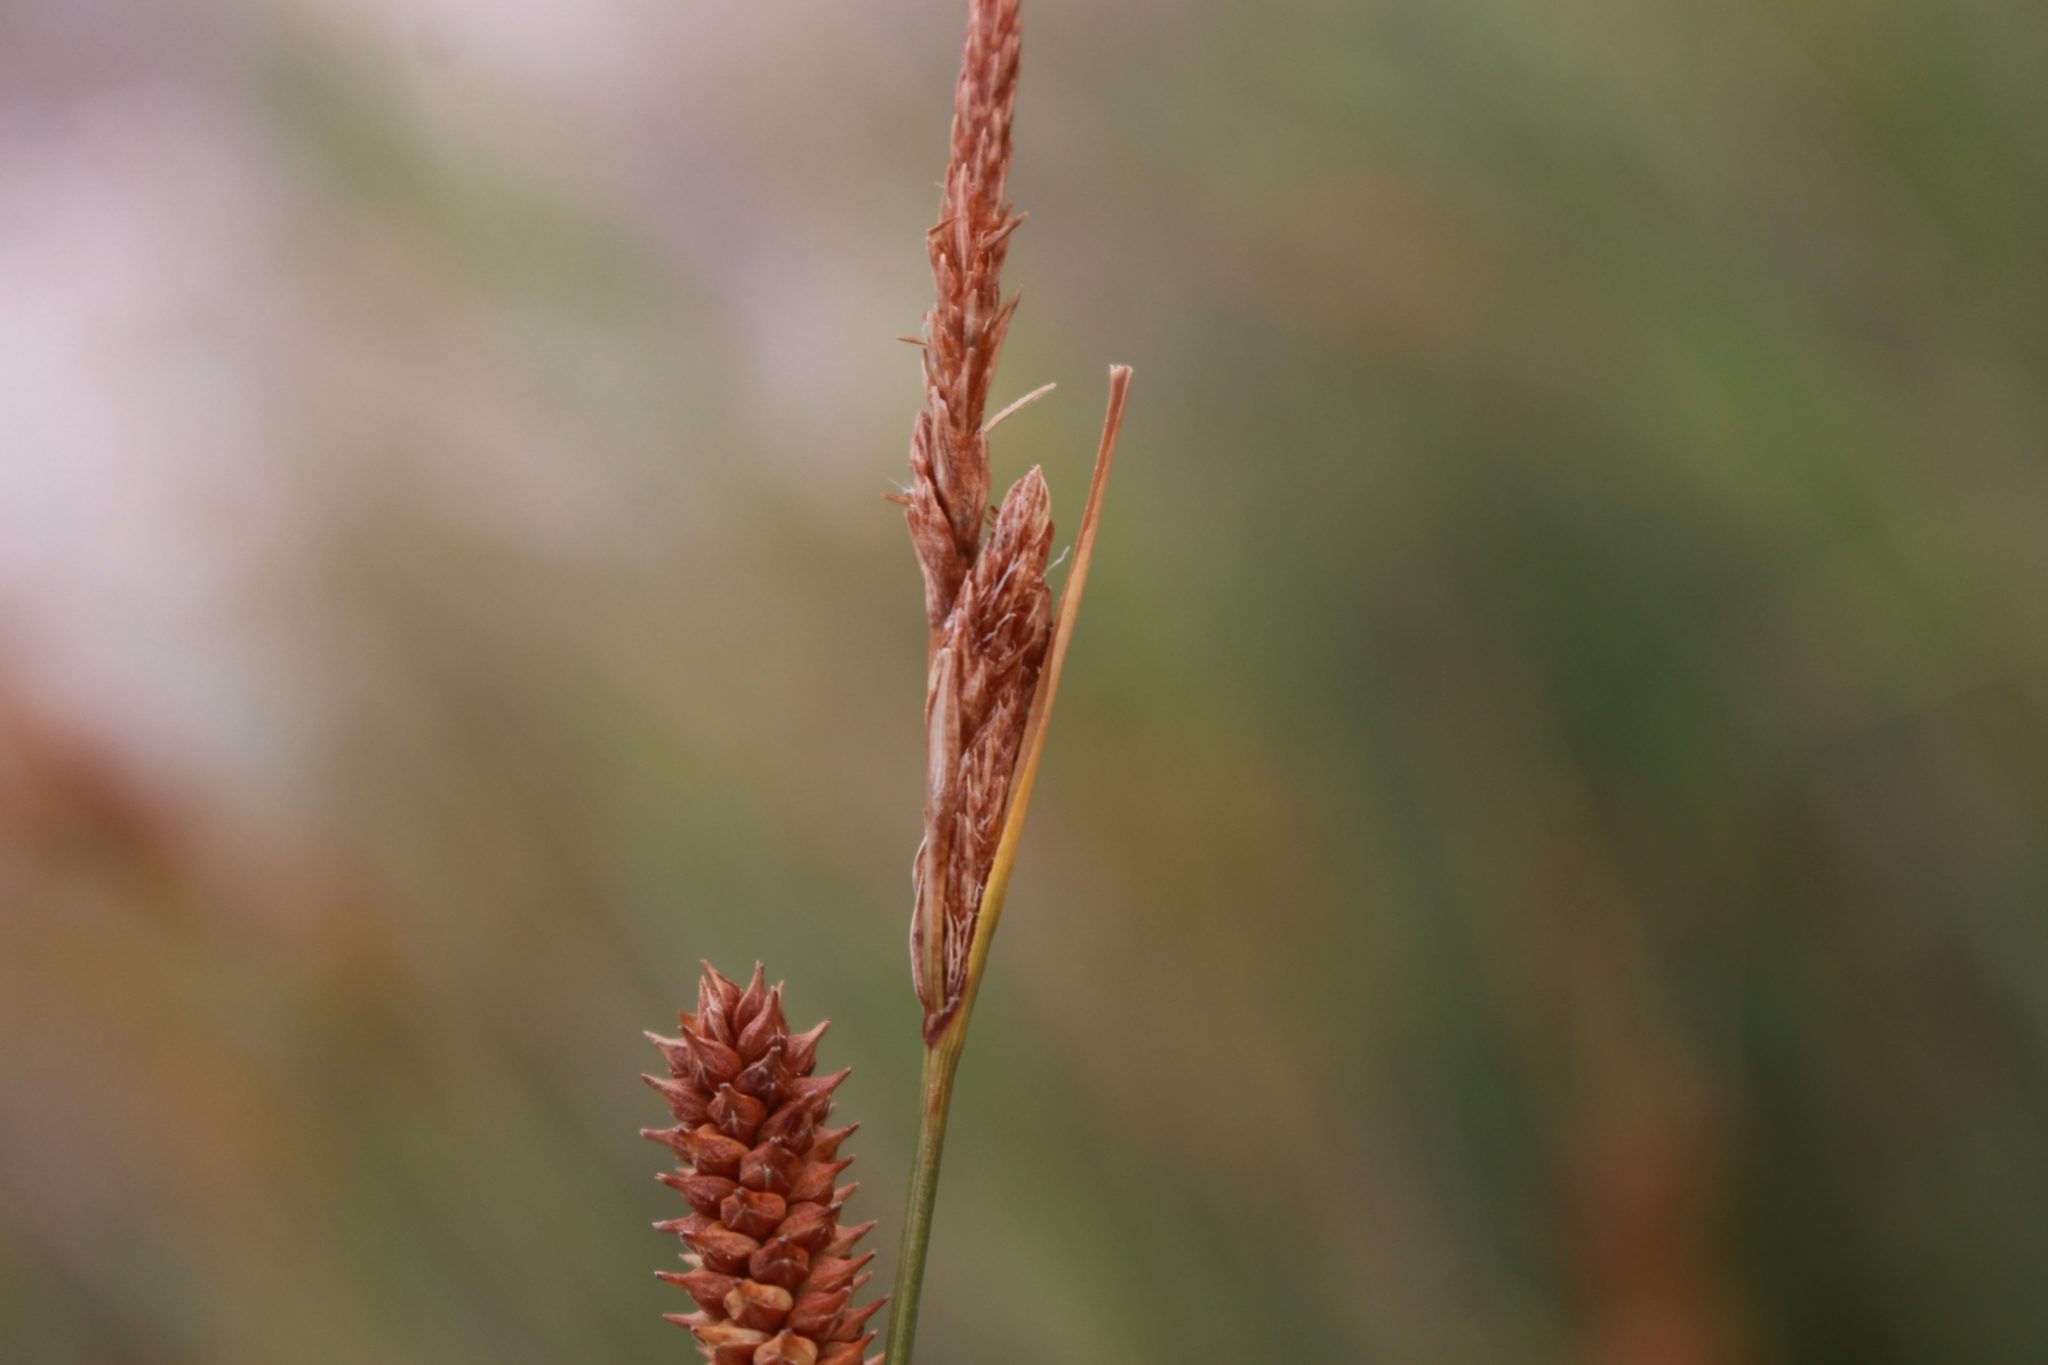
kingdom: Plantae
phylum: Tracheophyta
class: Liliopsida
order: Poales
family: Cyperaceae
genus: Carex
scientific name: Carex extensa
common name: Long-bracted sedge
